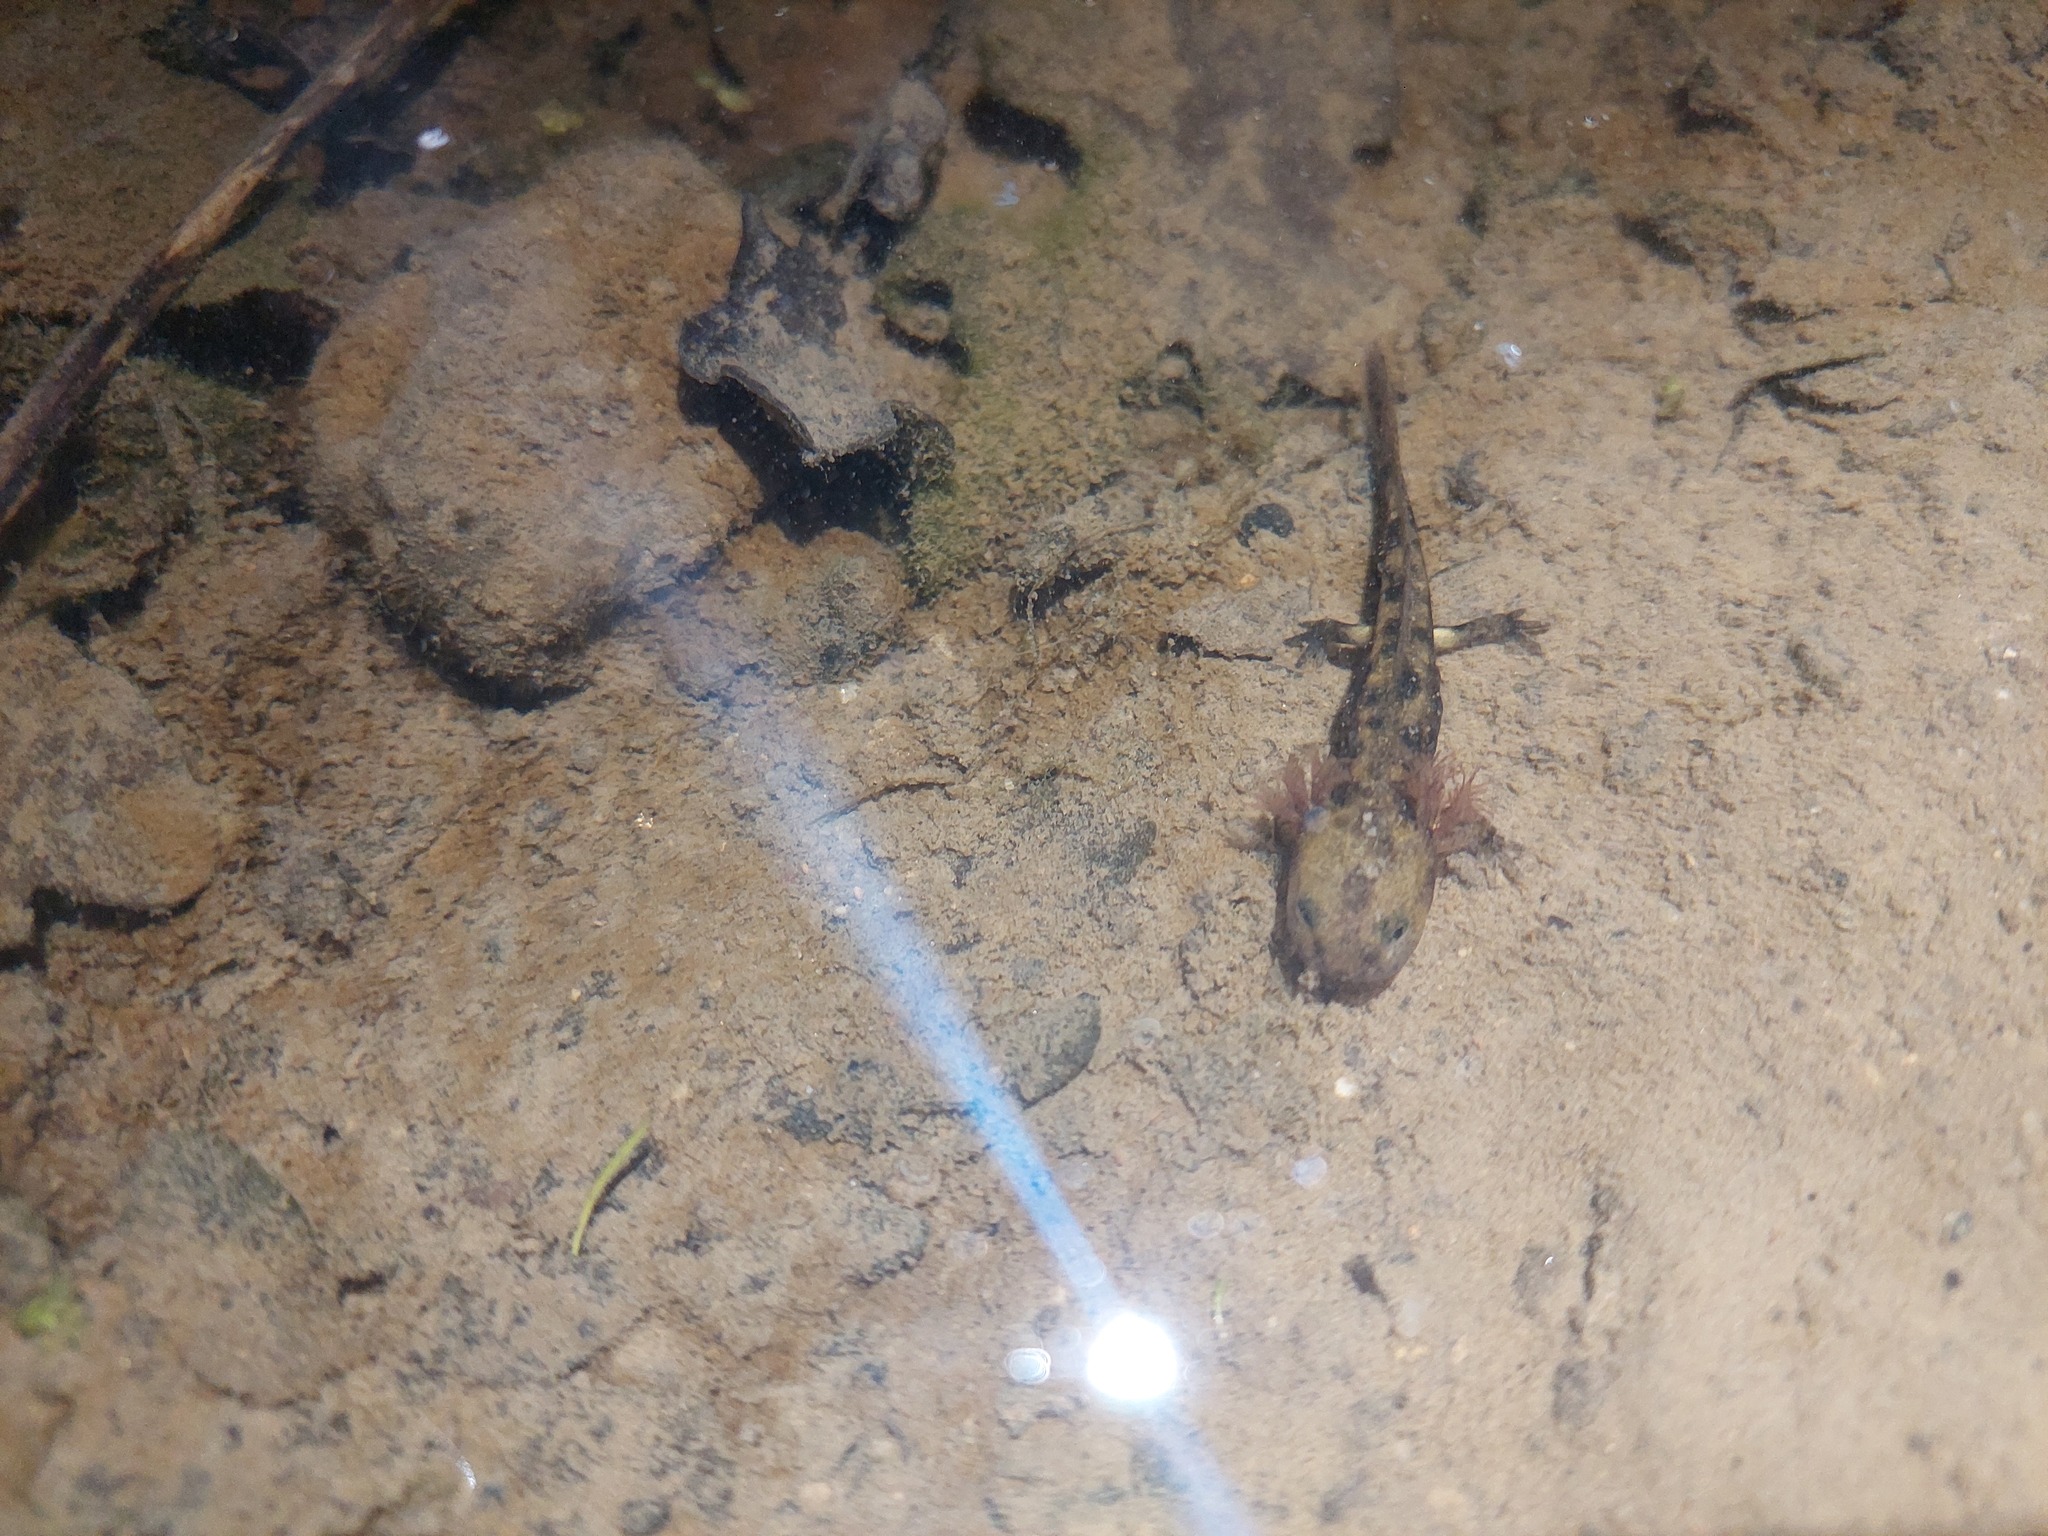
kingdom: Animalia
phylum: Chordata
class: Amphibia
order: Caudata
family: Salamandridae
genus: Salamandra
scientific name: Salamandra salamandra
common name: Fire salamander
